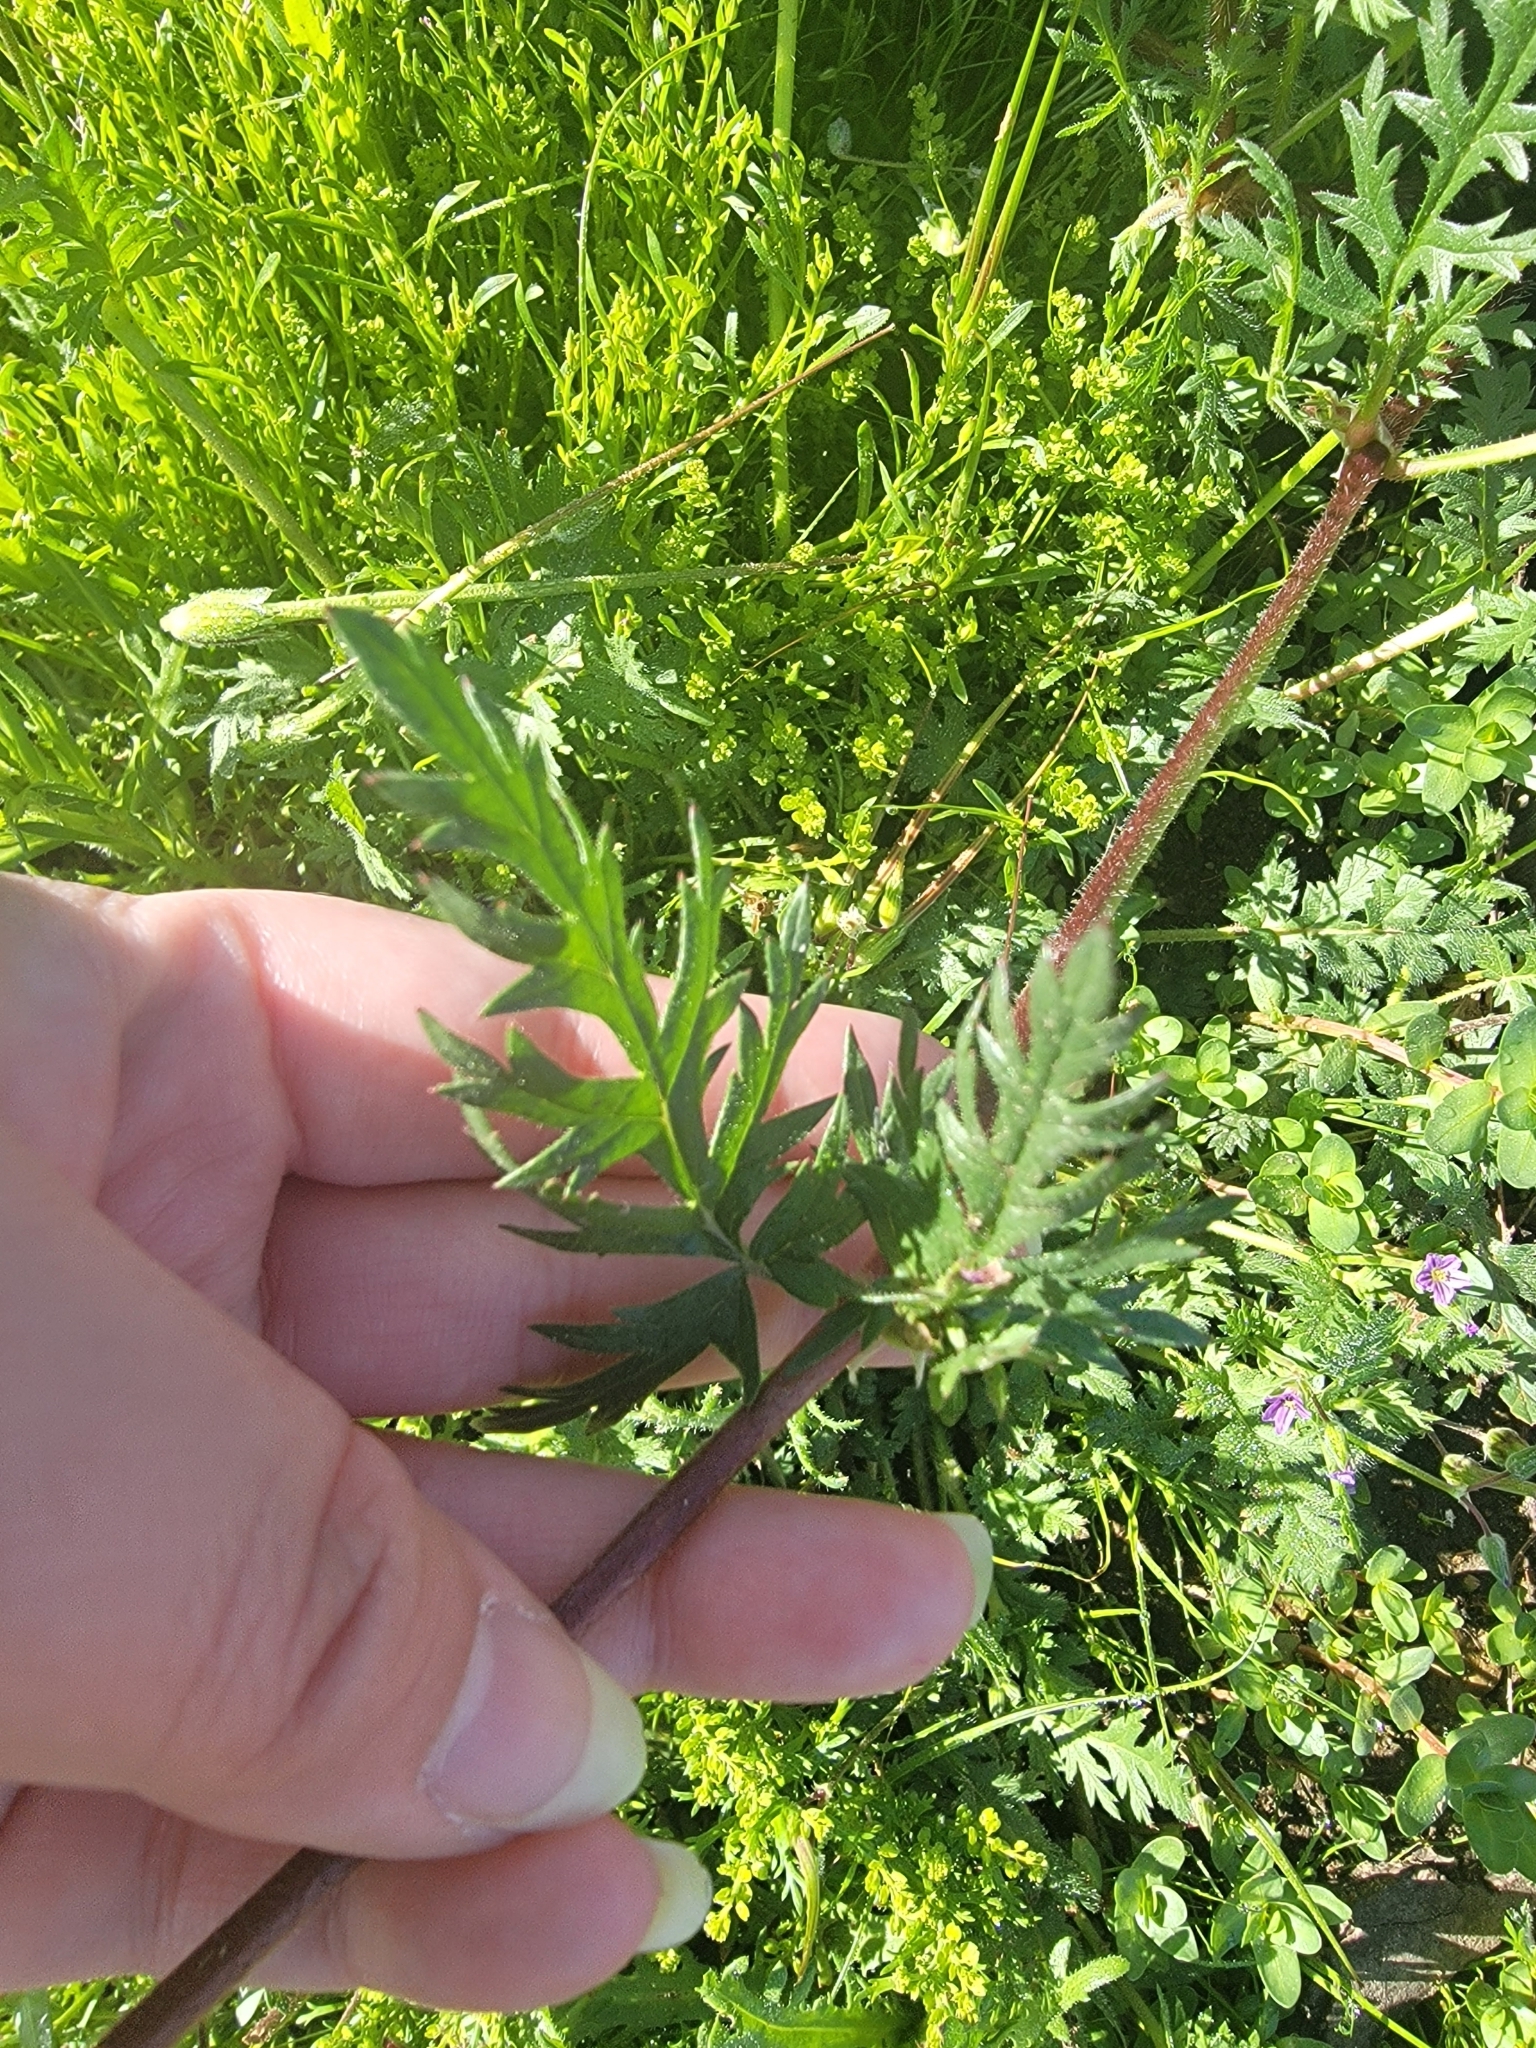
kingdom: Plantae
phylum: Tracheophyta
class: Magnoliopsida
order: Geraniales
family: Geraniaceae
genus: Erodium
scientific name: Erodium botrys
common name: Mediterranean stork's-bill
